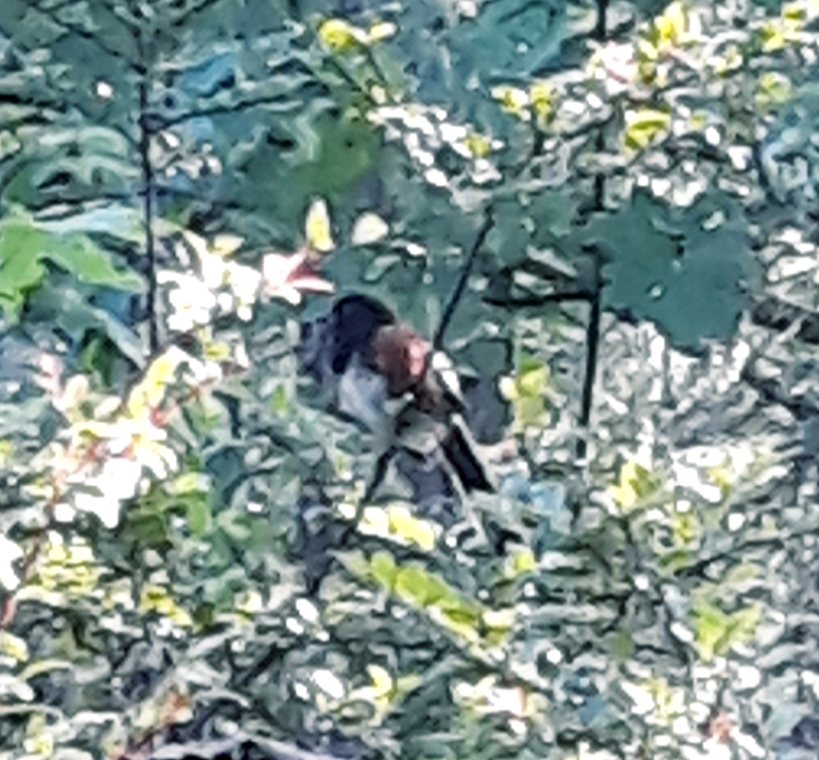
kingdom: Animalia
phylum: Chordata
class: Aves
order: Passeriformes
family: Passerellidae
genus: Pipilo
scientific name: Pipilo maculatus
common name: Spotted towhee
